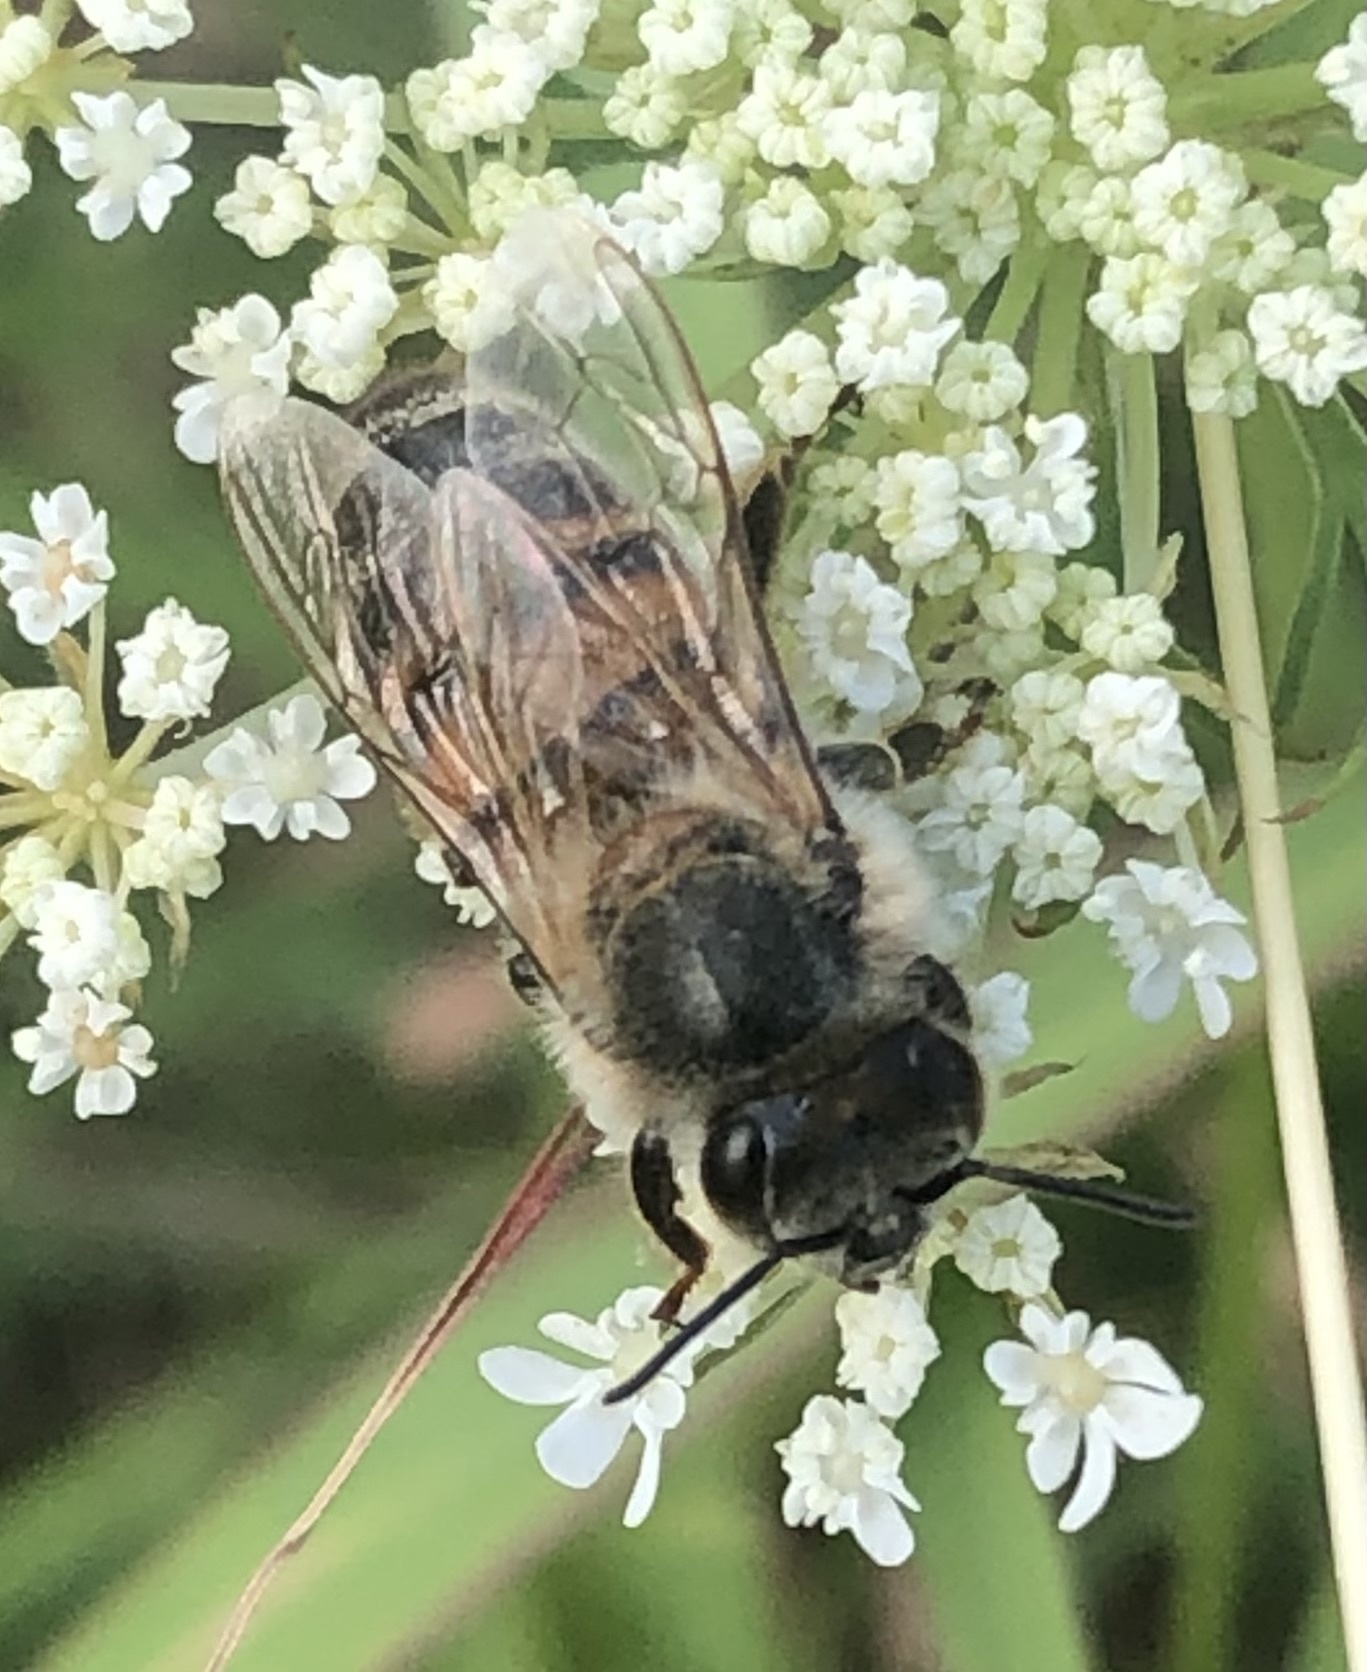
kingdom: Animalia
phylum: Arthropoda
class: Insecta
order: Hymenoptera
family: Apidae
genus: Apis
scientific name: Apis mellifera
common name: Honey bee
